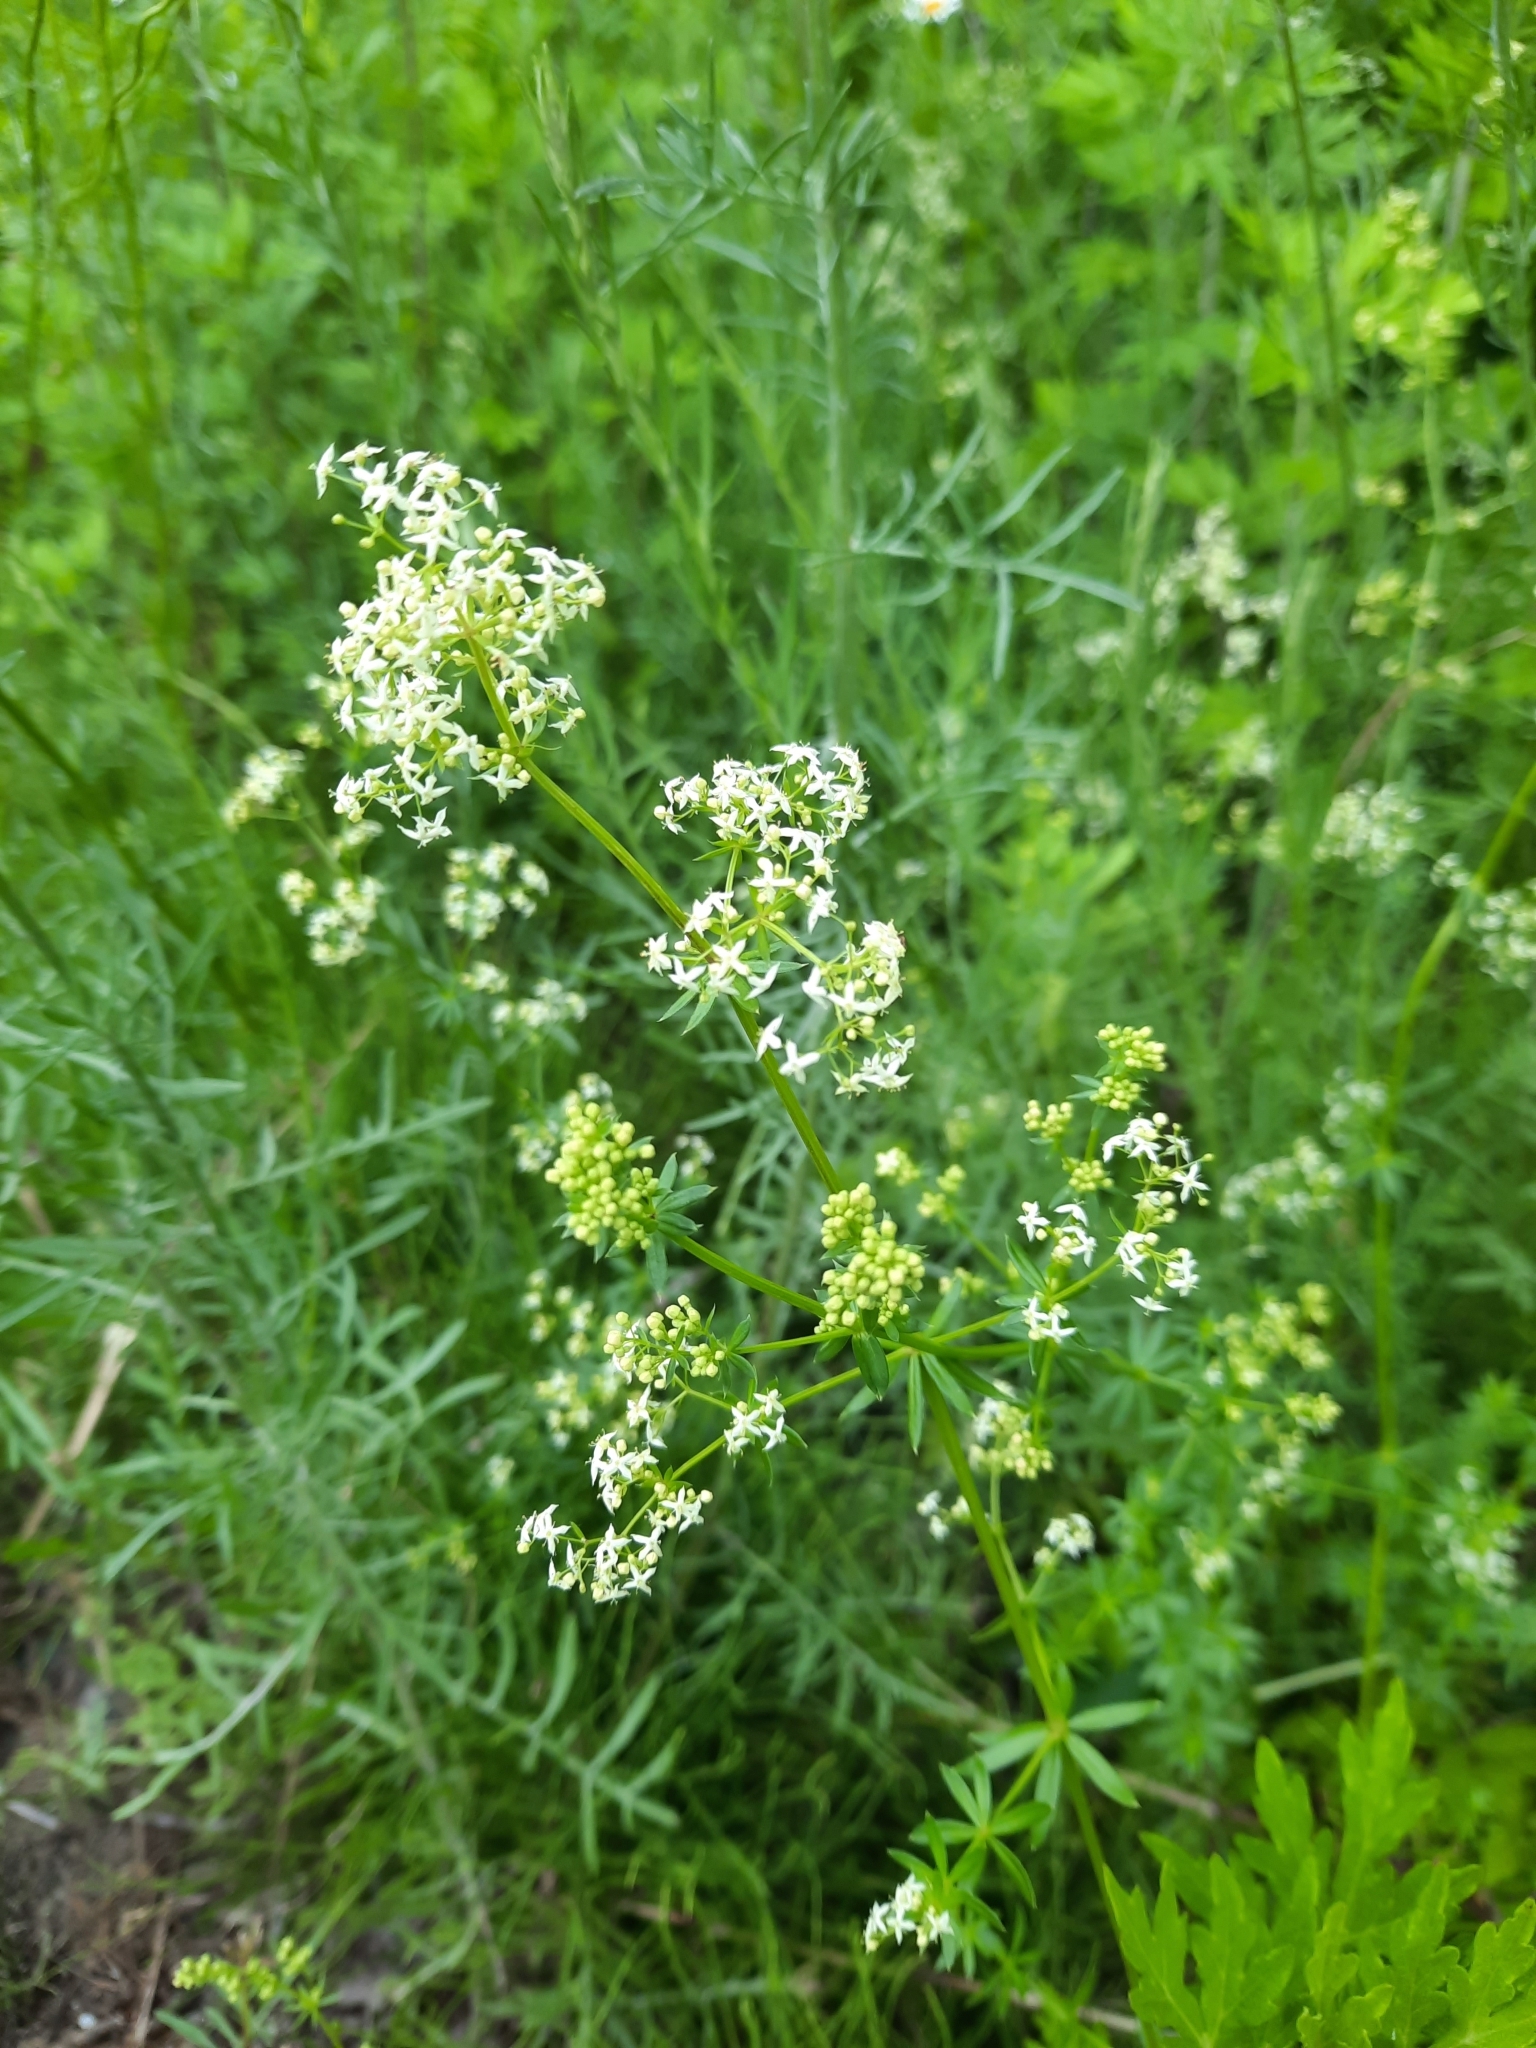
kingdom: Plantae
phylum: Tracheophyta
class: Magnoliopsida
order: Gentianales
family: Rubiaceae
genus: Galium
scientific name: Galium mollugo
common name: Hedge bedstraw
